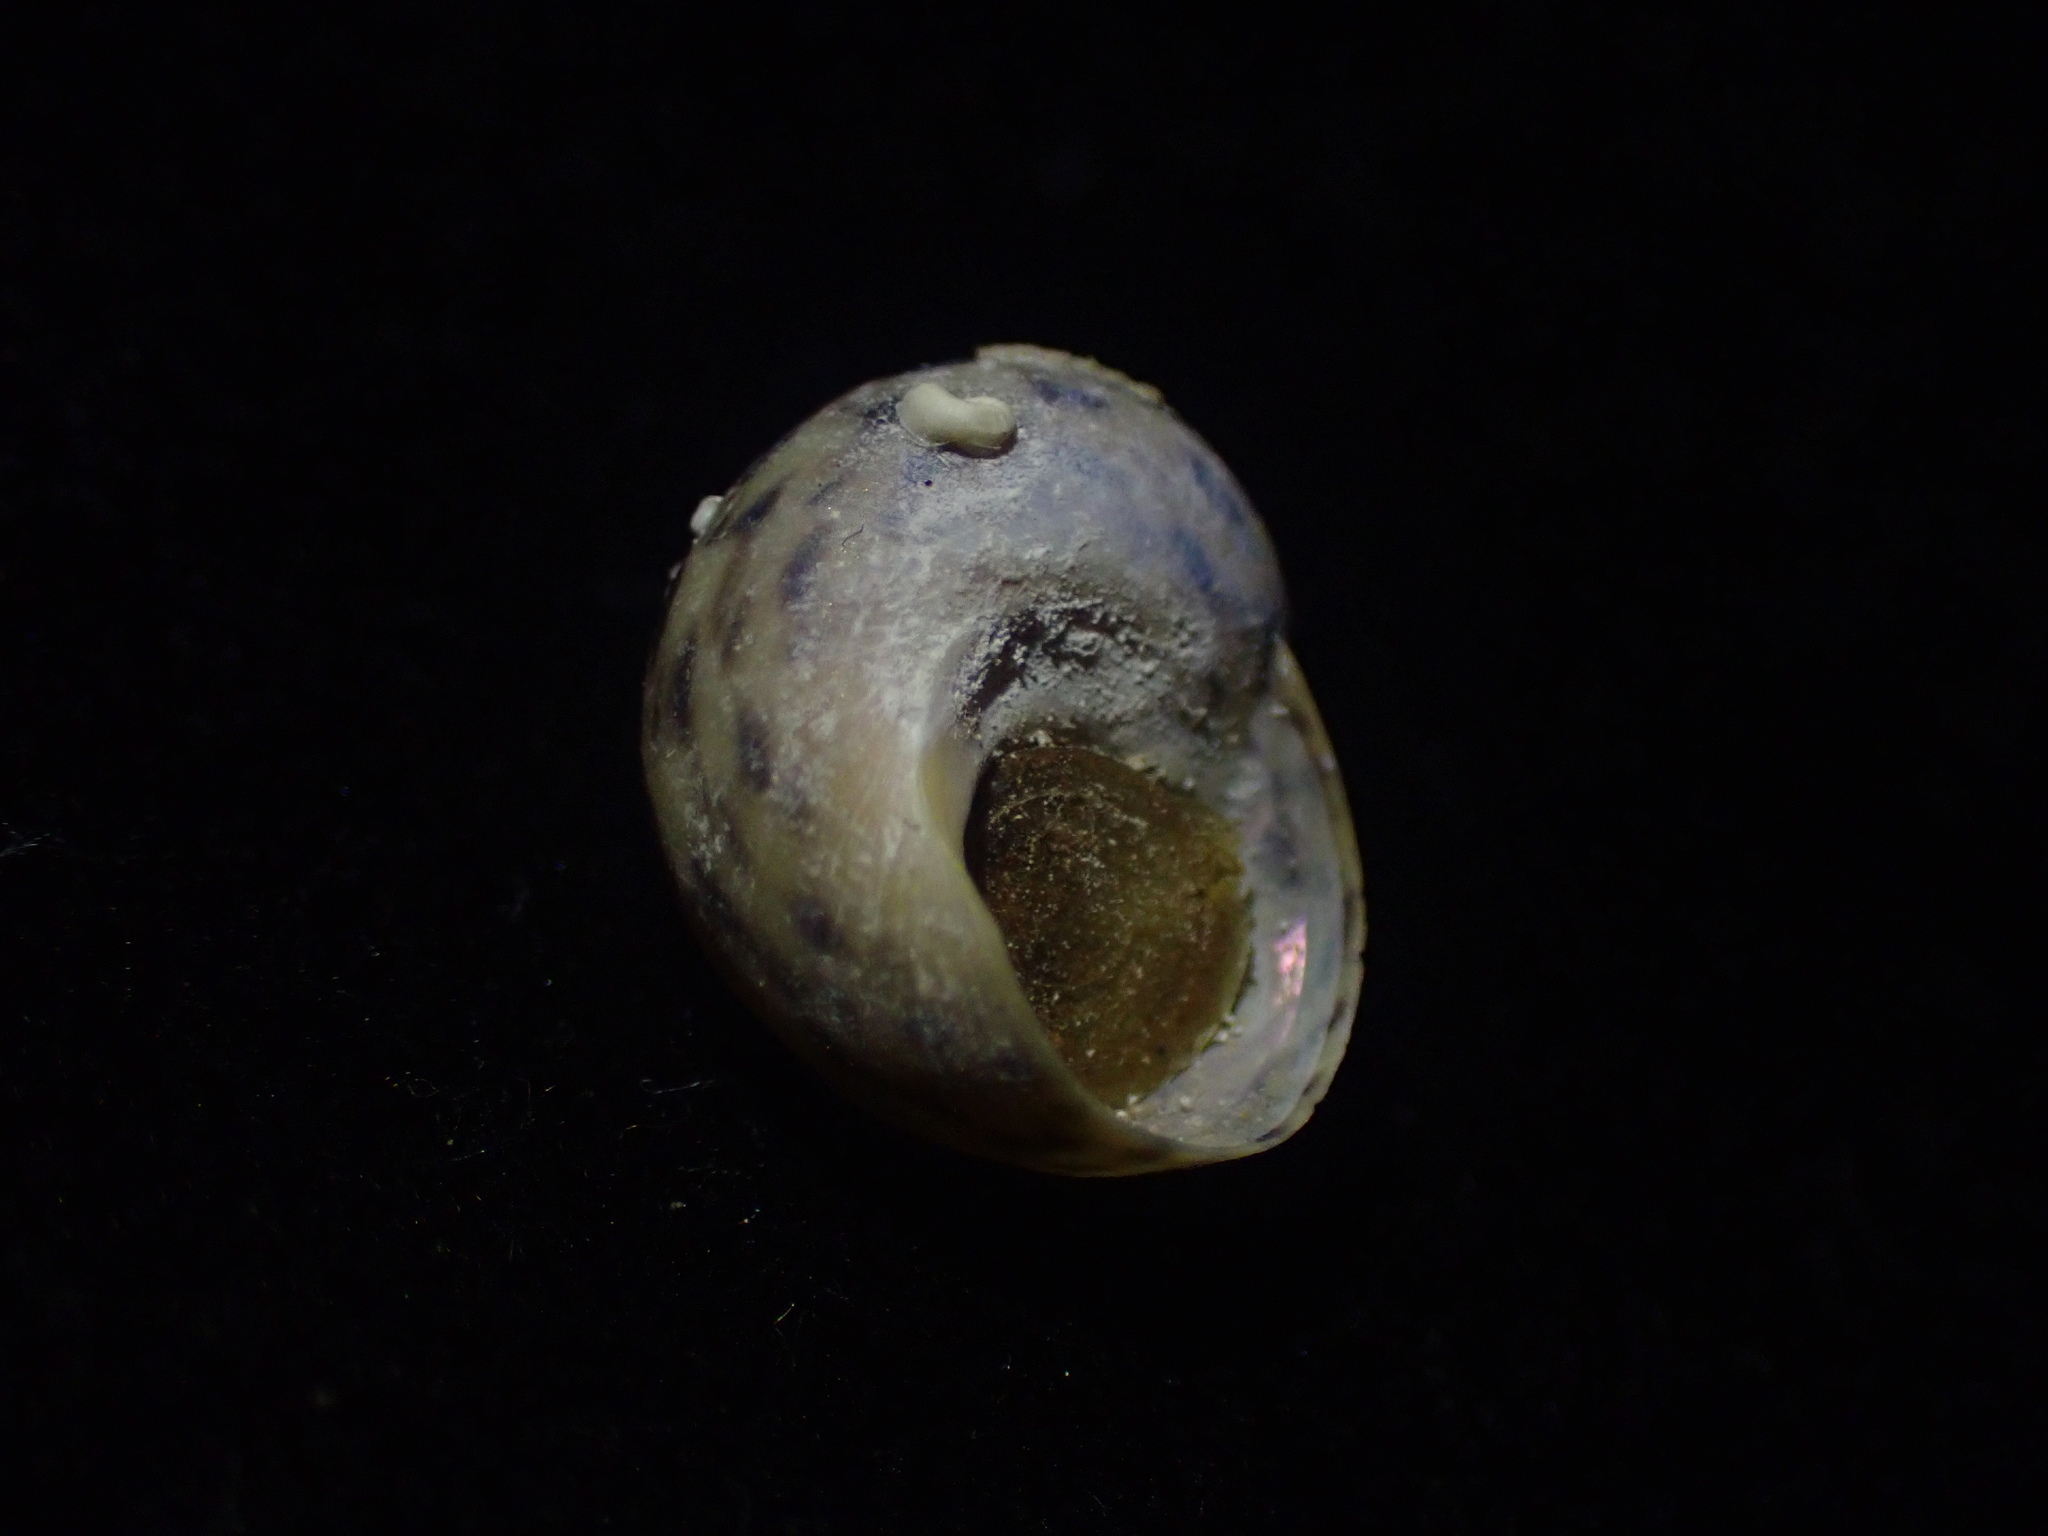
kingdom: Animalia
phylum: Mollusca
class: Gastropoda
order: Trochida
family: Trochidae
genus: Cantharidus
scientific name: Cantharidus antipodum
